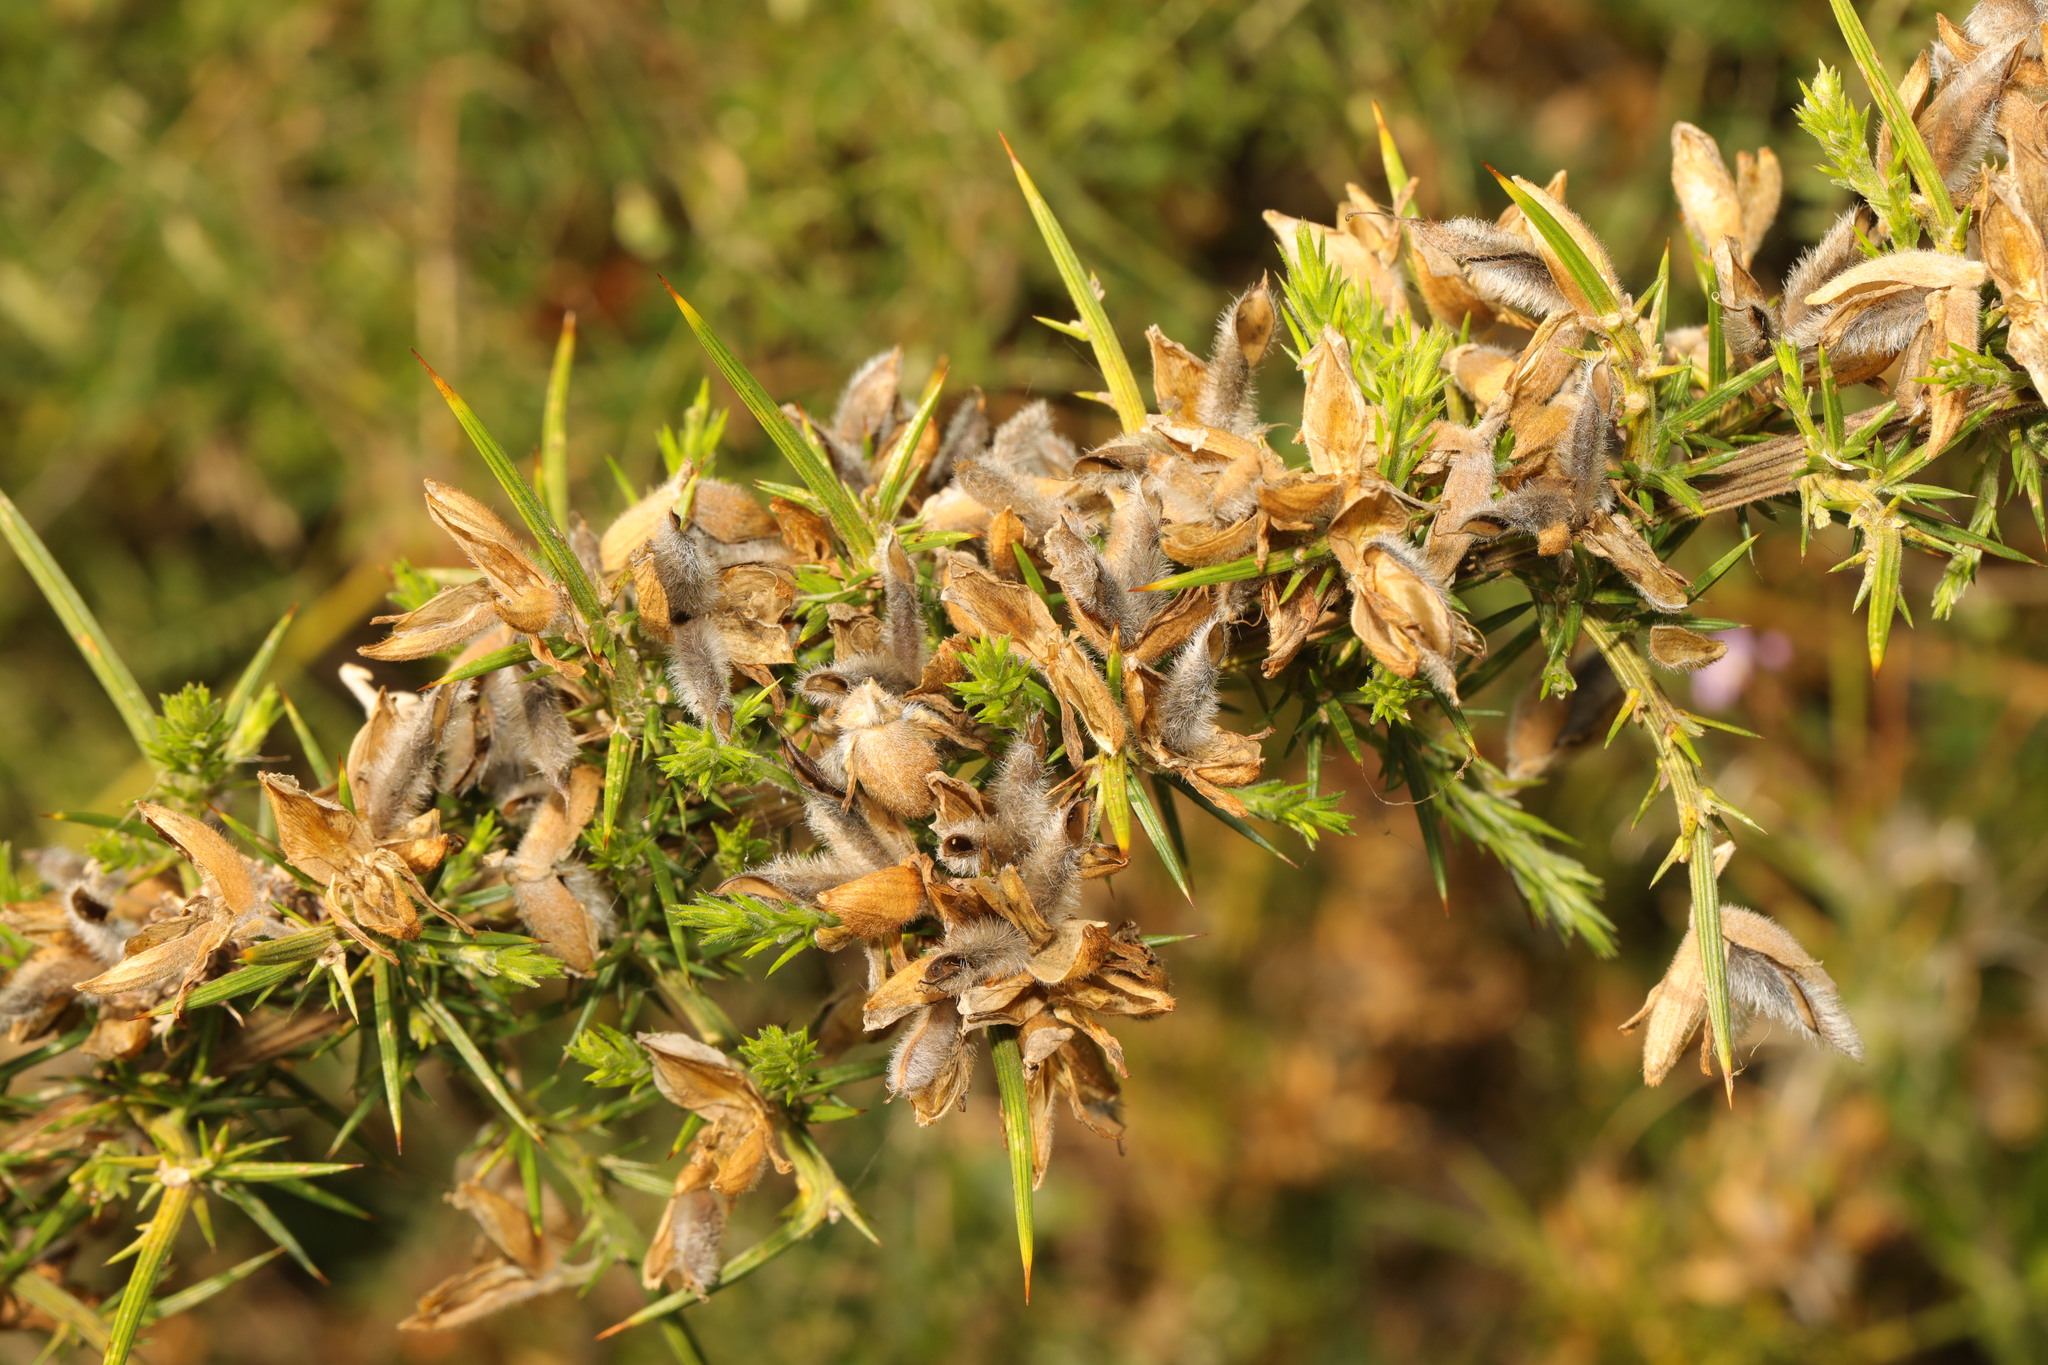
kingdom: Plantae
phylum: Tracheophyta
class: Magnoliopsida
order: Fabales
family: Fabaceae
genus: Ulex
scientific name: Ulex europaeus
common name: Common gorse
